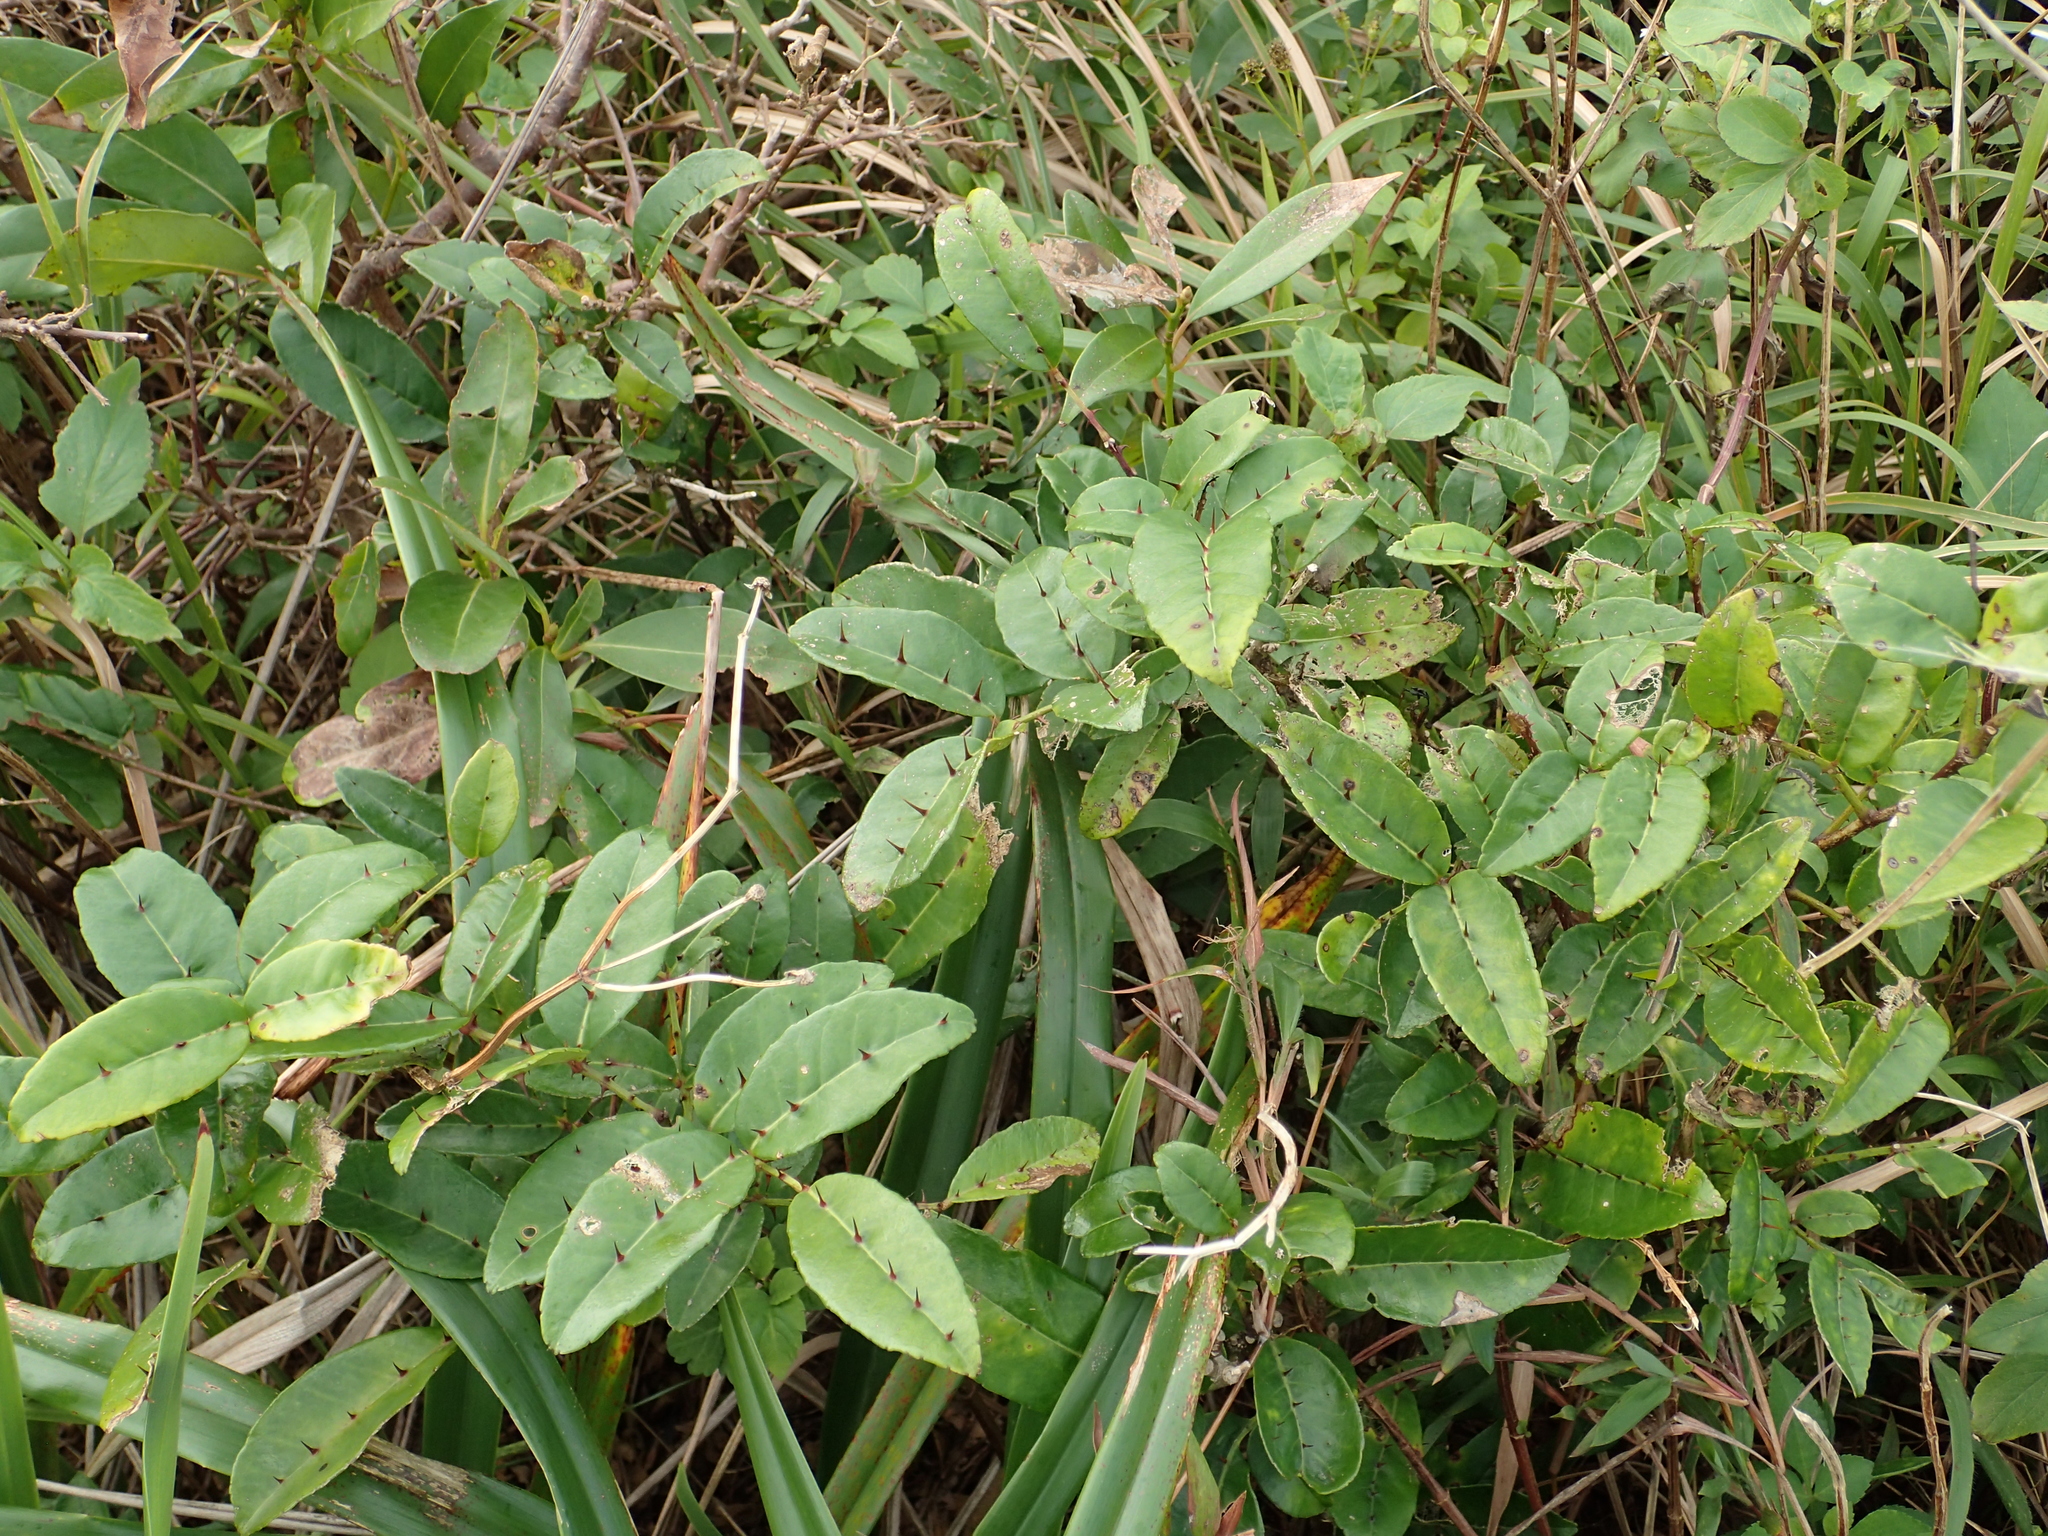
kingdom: Plantae
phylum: Tracheophyta
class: Magnoliopsida
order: Sapindales
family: Rutaceae
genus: Zanthoxylum
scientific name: Zanthoxylum nitidum
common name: Shiny-leaf prickly-ash
